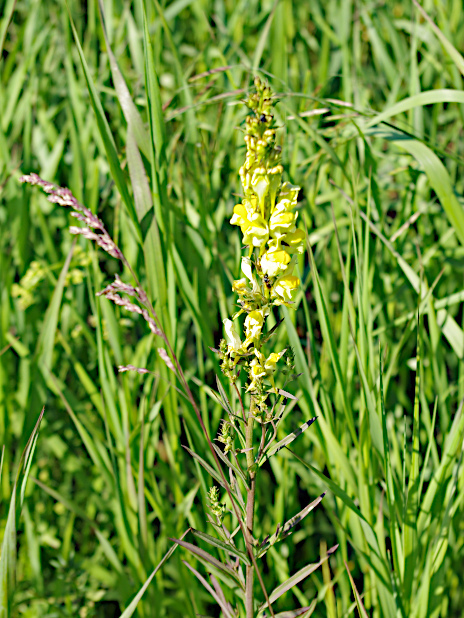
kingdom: Plantae
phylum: Tracheophyta
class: Magnoliopsida
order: Lamiales
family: Plantaginaceae
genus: Linaria
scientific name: Linaria vulgaris
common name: Butter and eggs
